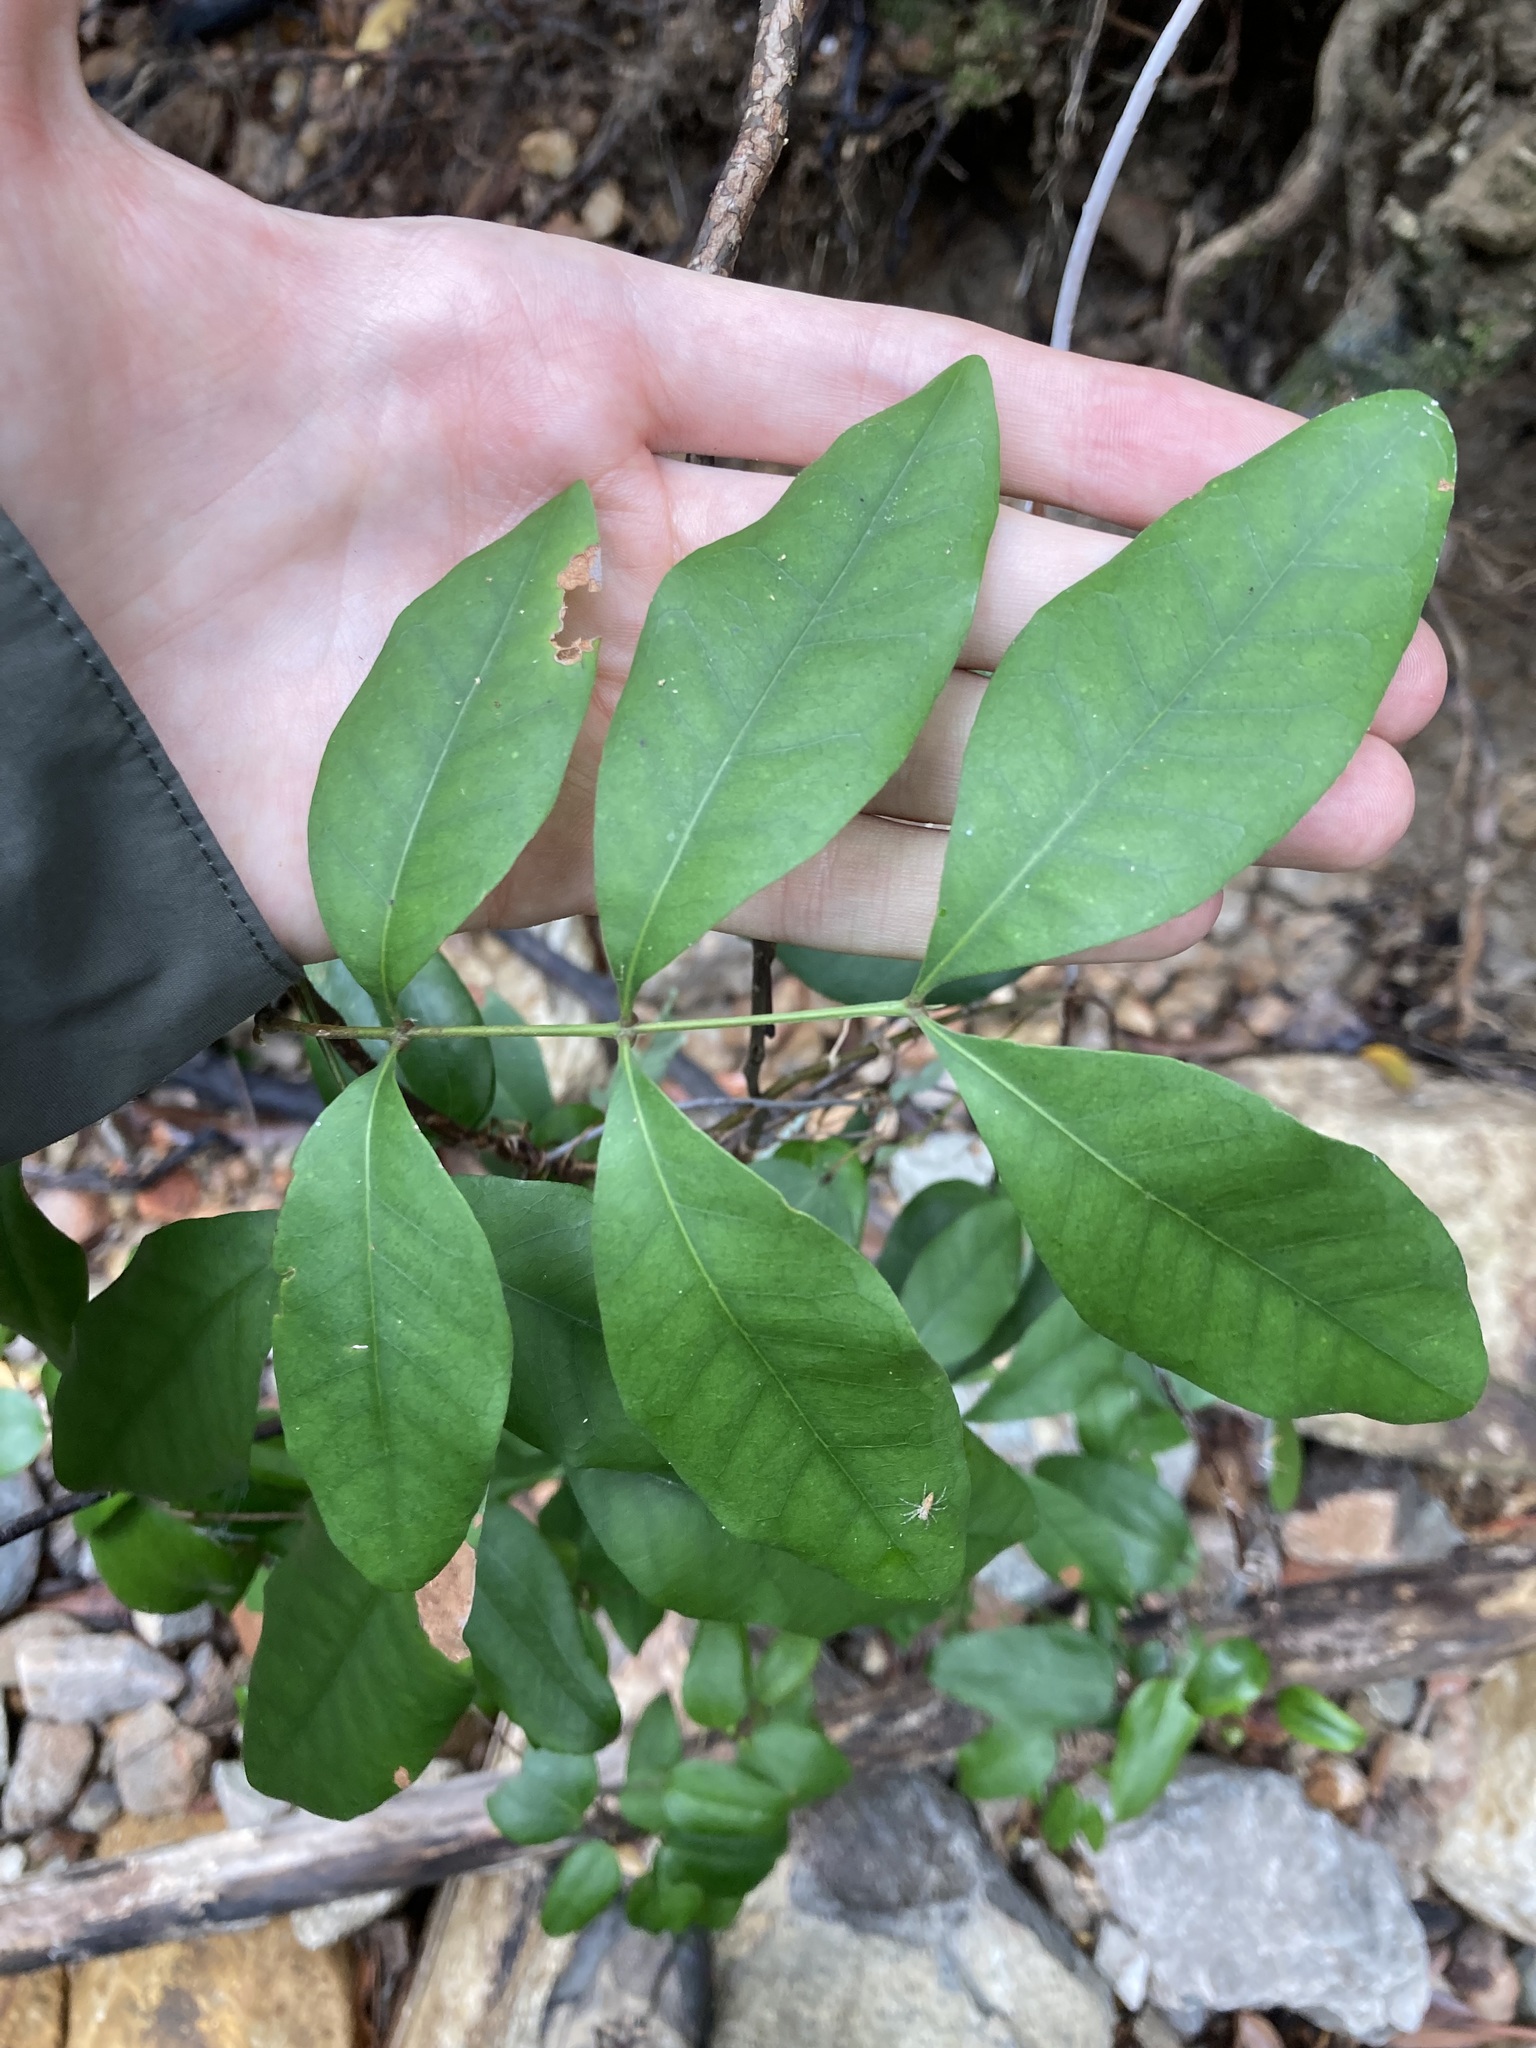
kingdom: Plantae
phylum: Tracheophyta
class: Magnoliopsida
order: Sapindales
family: Sapindaceae
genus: Guioa
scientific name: Guioa semiglauca
